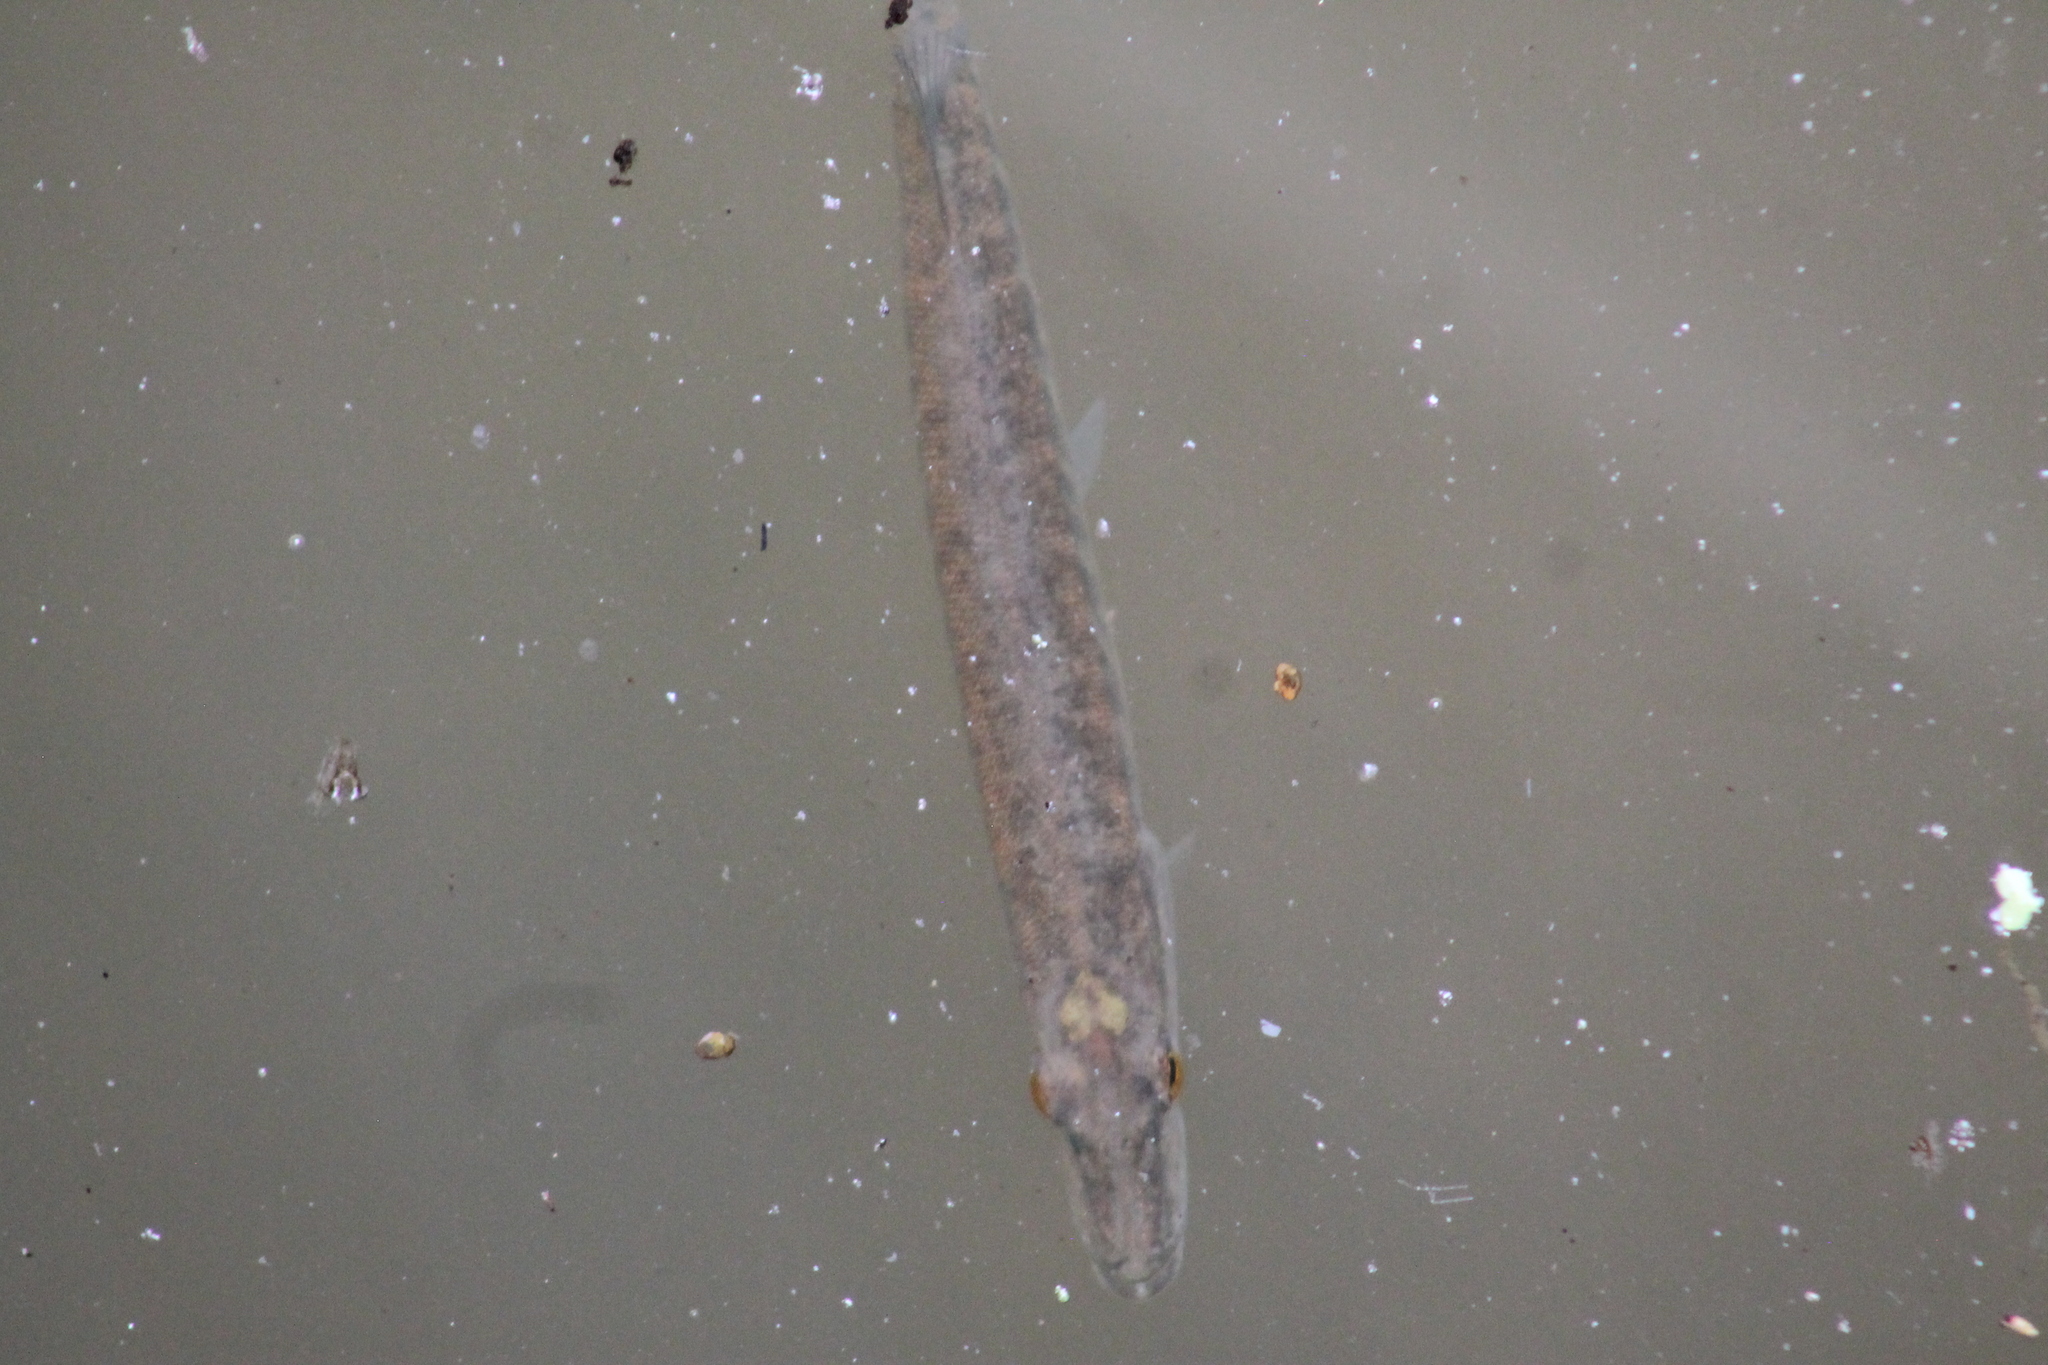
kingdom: Animalia
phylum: Chordata
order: Esociformes
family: Esocidae
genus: Esox
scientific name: Esox americanus
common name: Redfin pickerel
